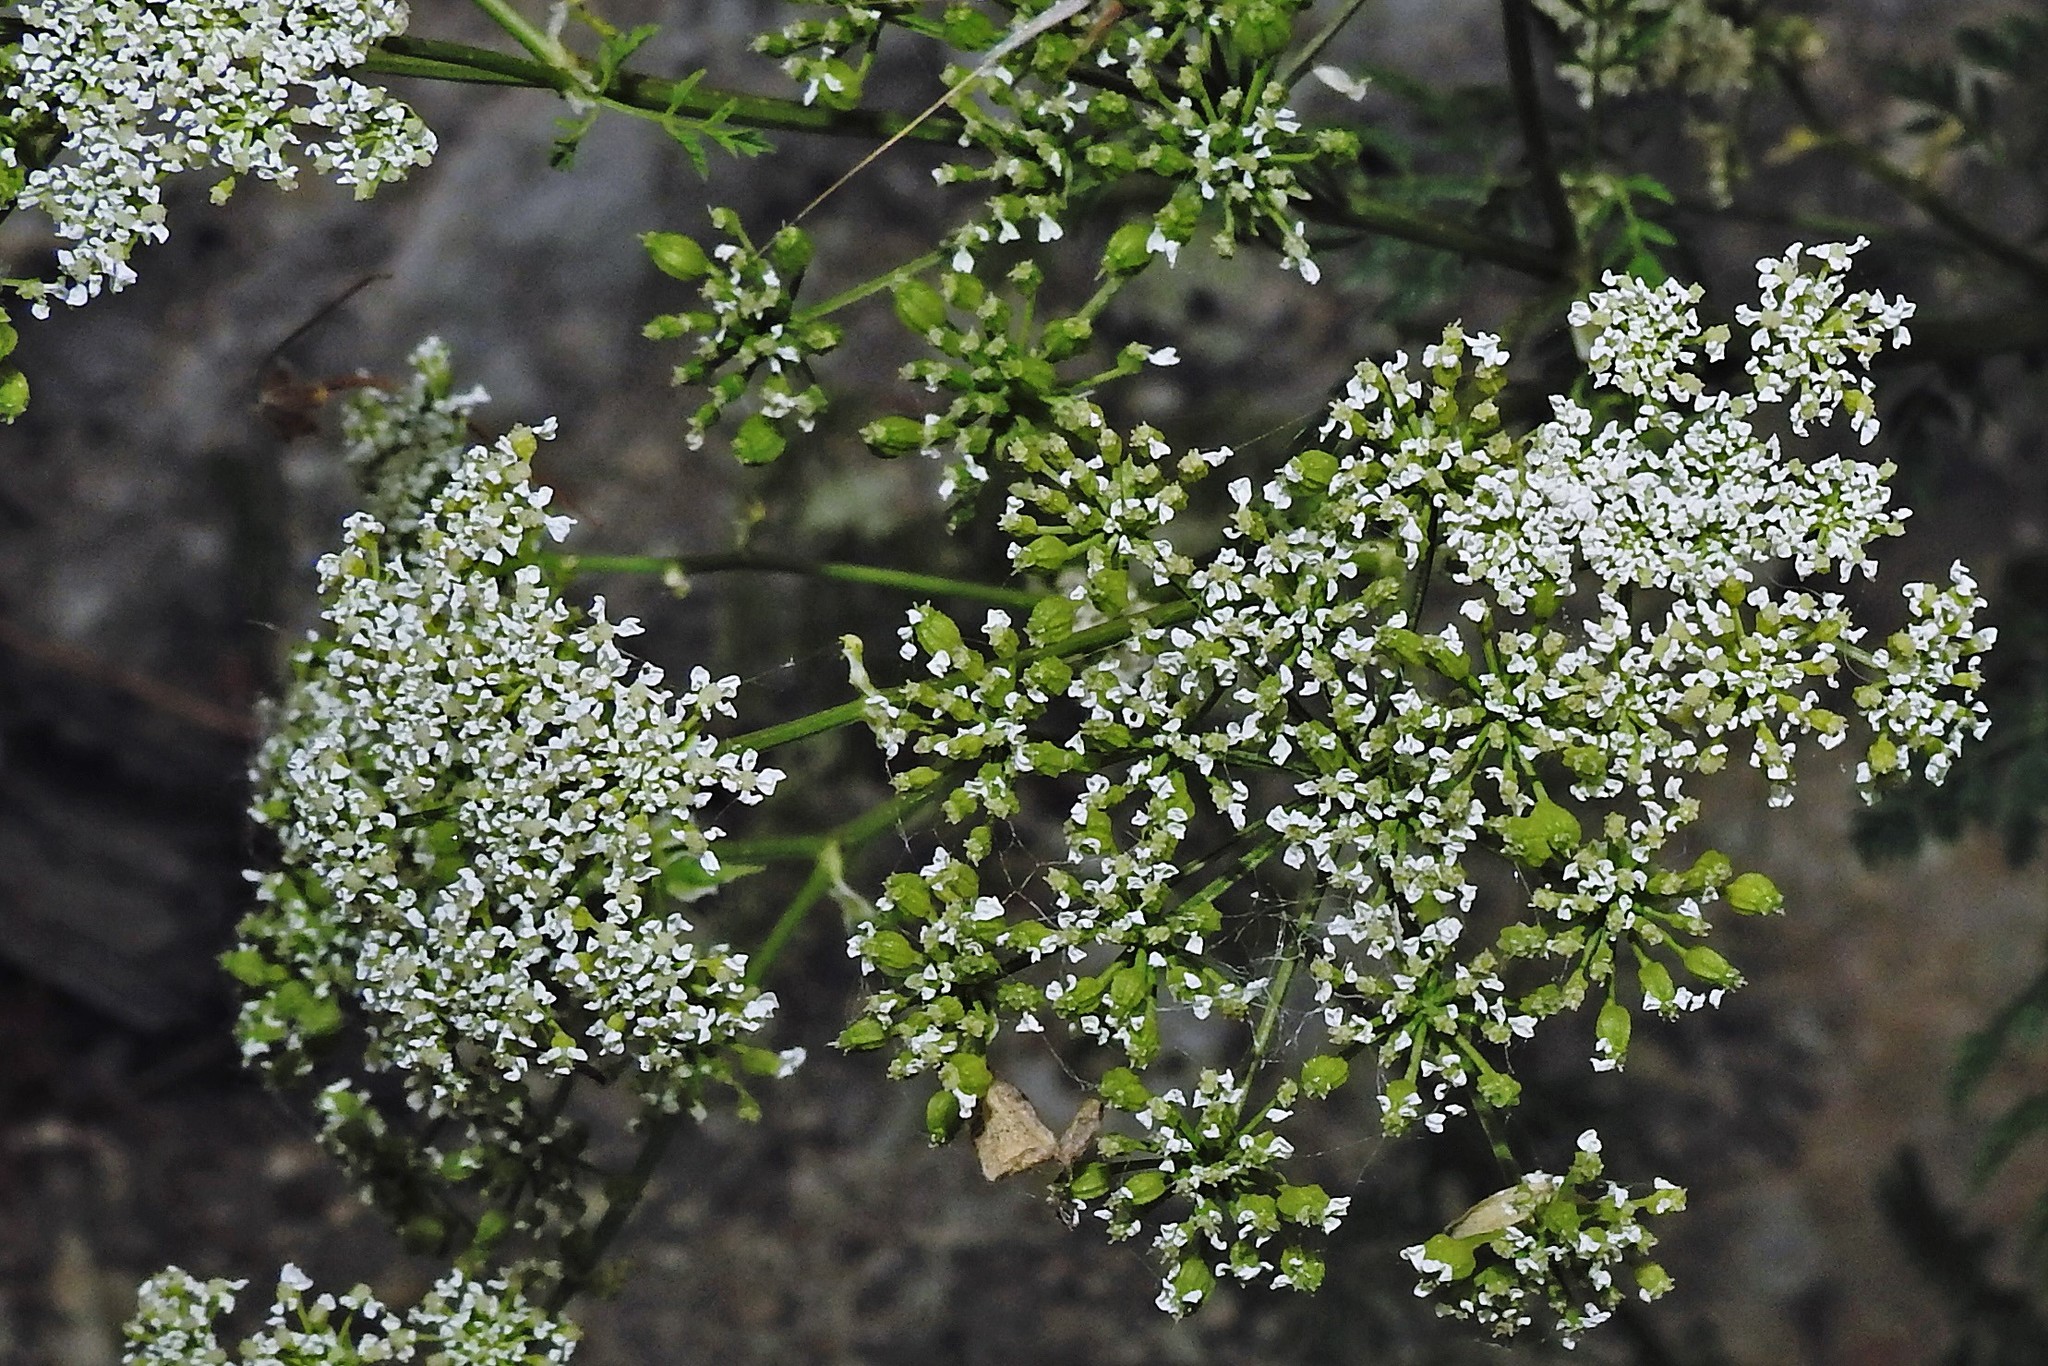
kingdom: Plantae
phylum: Tracheophyta
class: Magnoliopsida
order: Apiales
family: Apiaceae
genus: Conium
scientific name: Conium maculatum
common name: Hemlock
